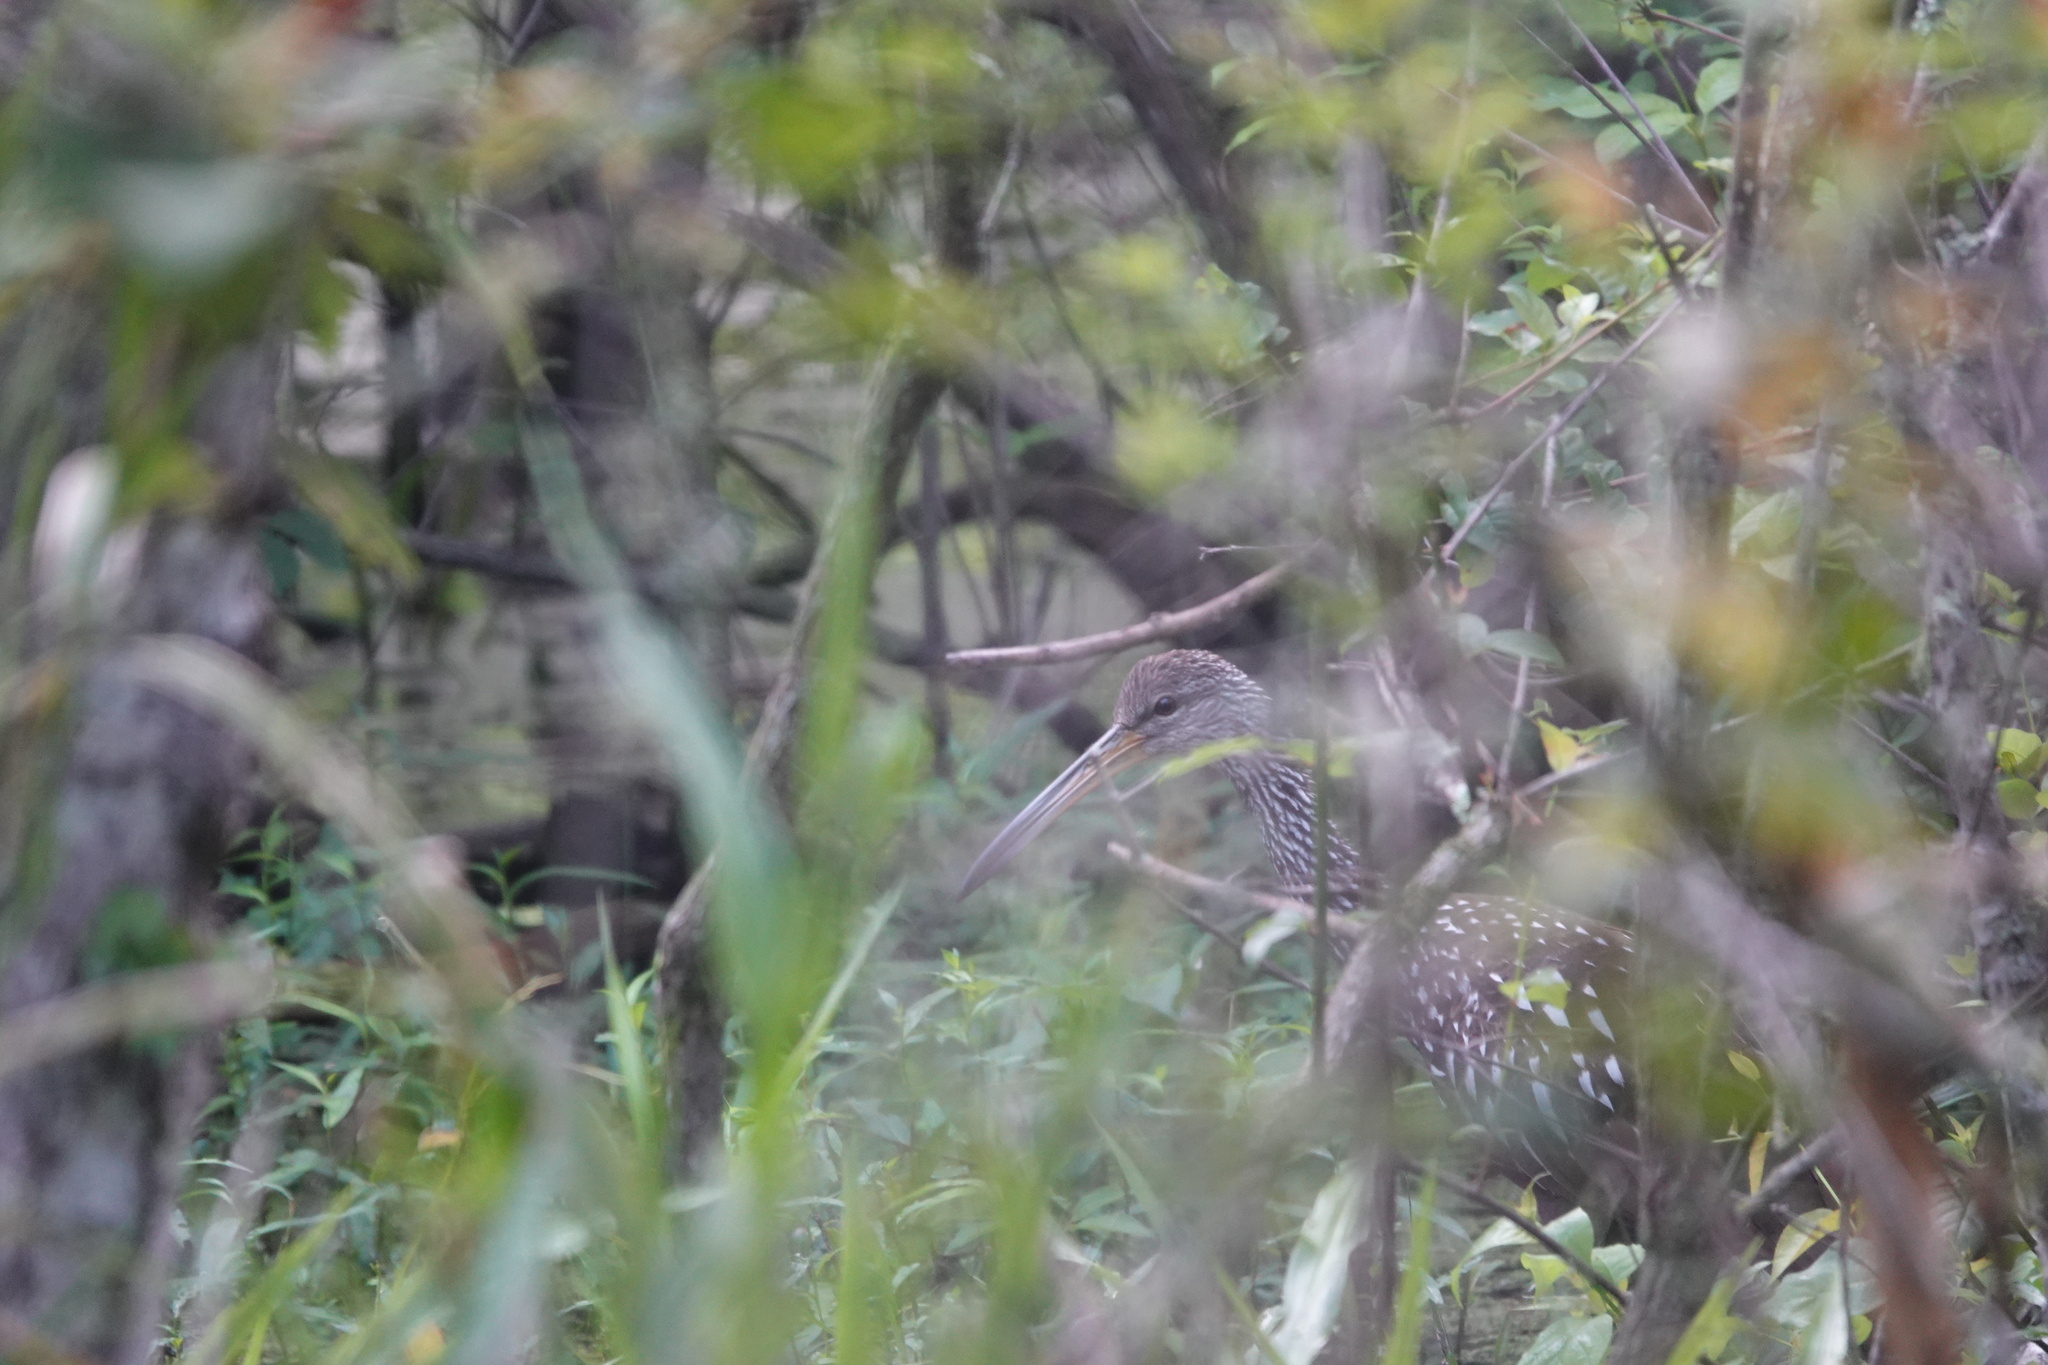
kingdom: Animalia
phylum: Chordata
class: Aves
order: Gruiformes
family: Aramidae
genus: Aramus
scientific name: Aramus guarauna
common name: Limpkin
